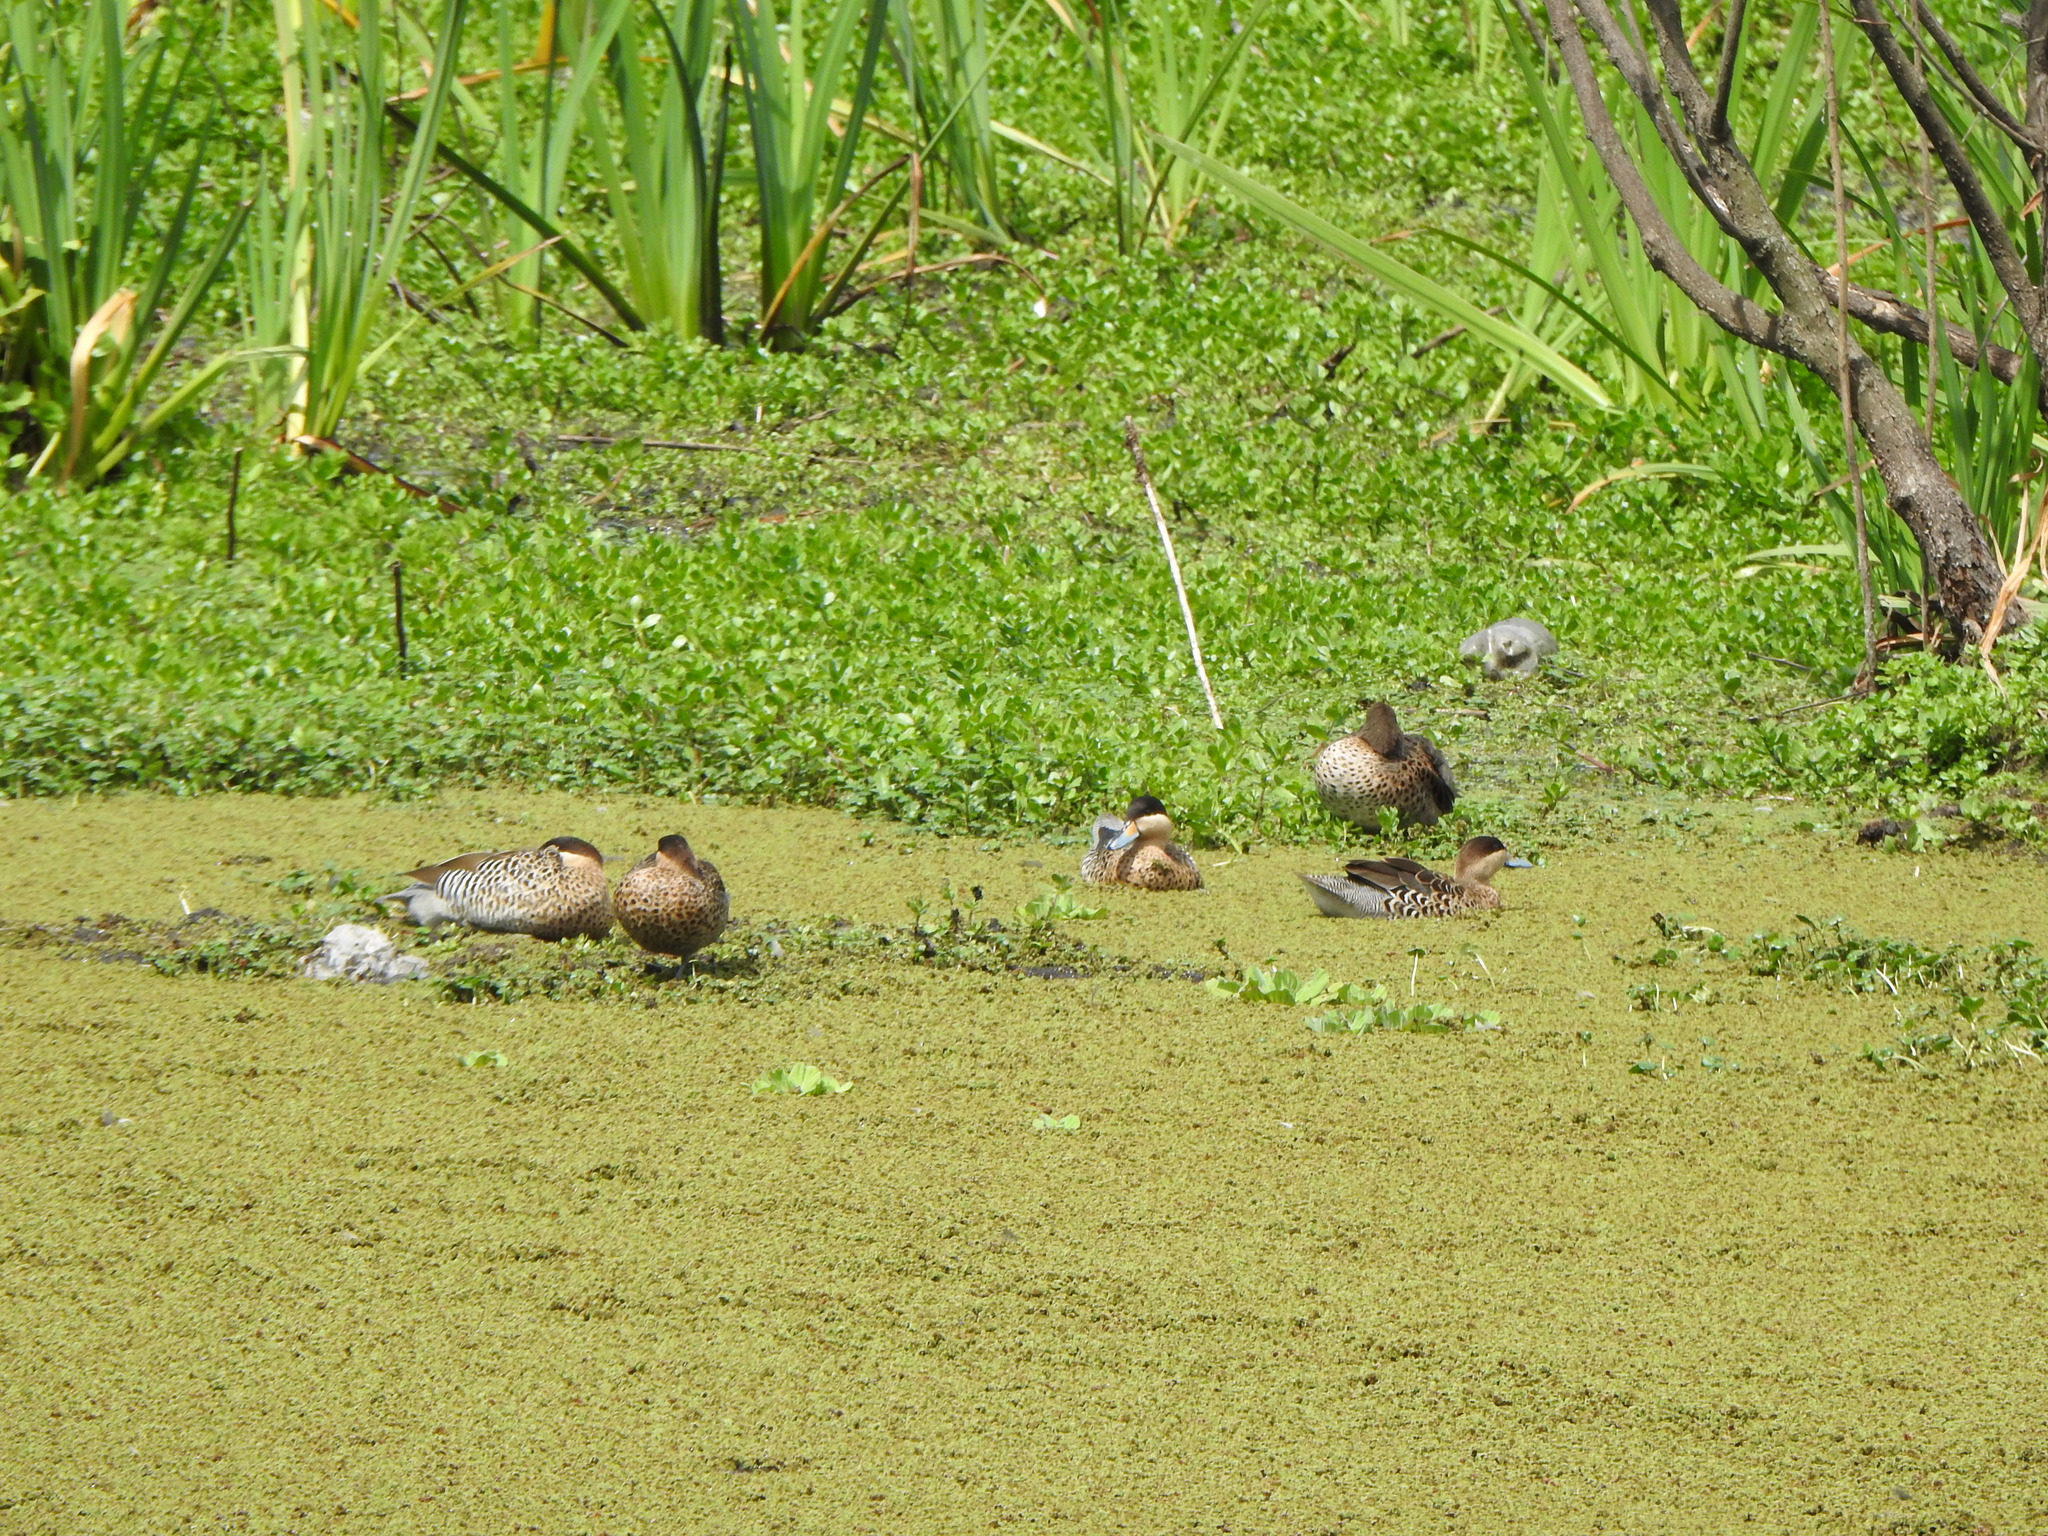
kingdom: Animalia
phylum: Chordata
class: Aves
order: Anseriformes
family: Anatidae
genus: Spatula
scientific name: Spatula versicolor
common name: Silver teal
